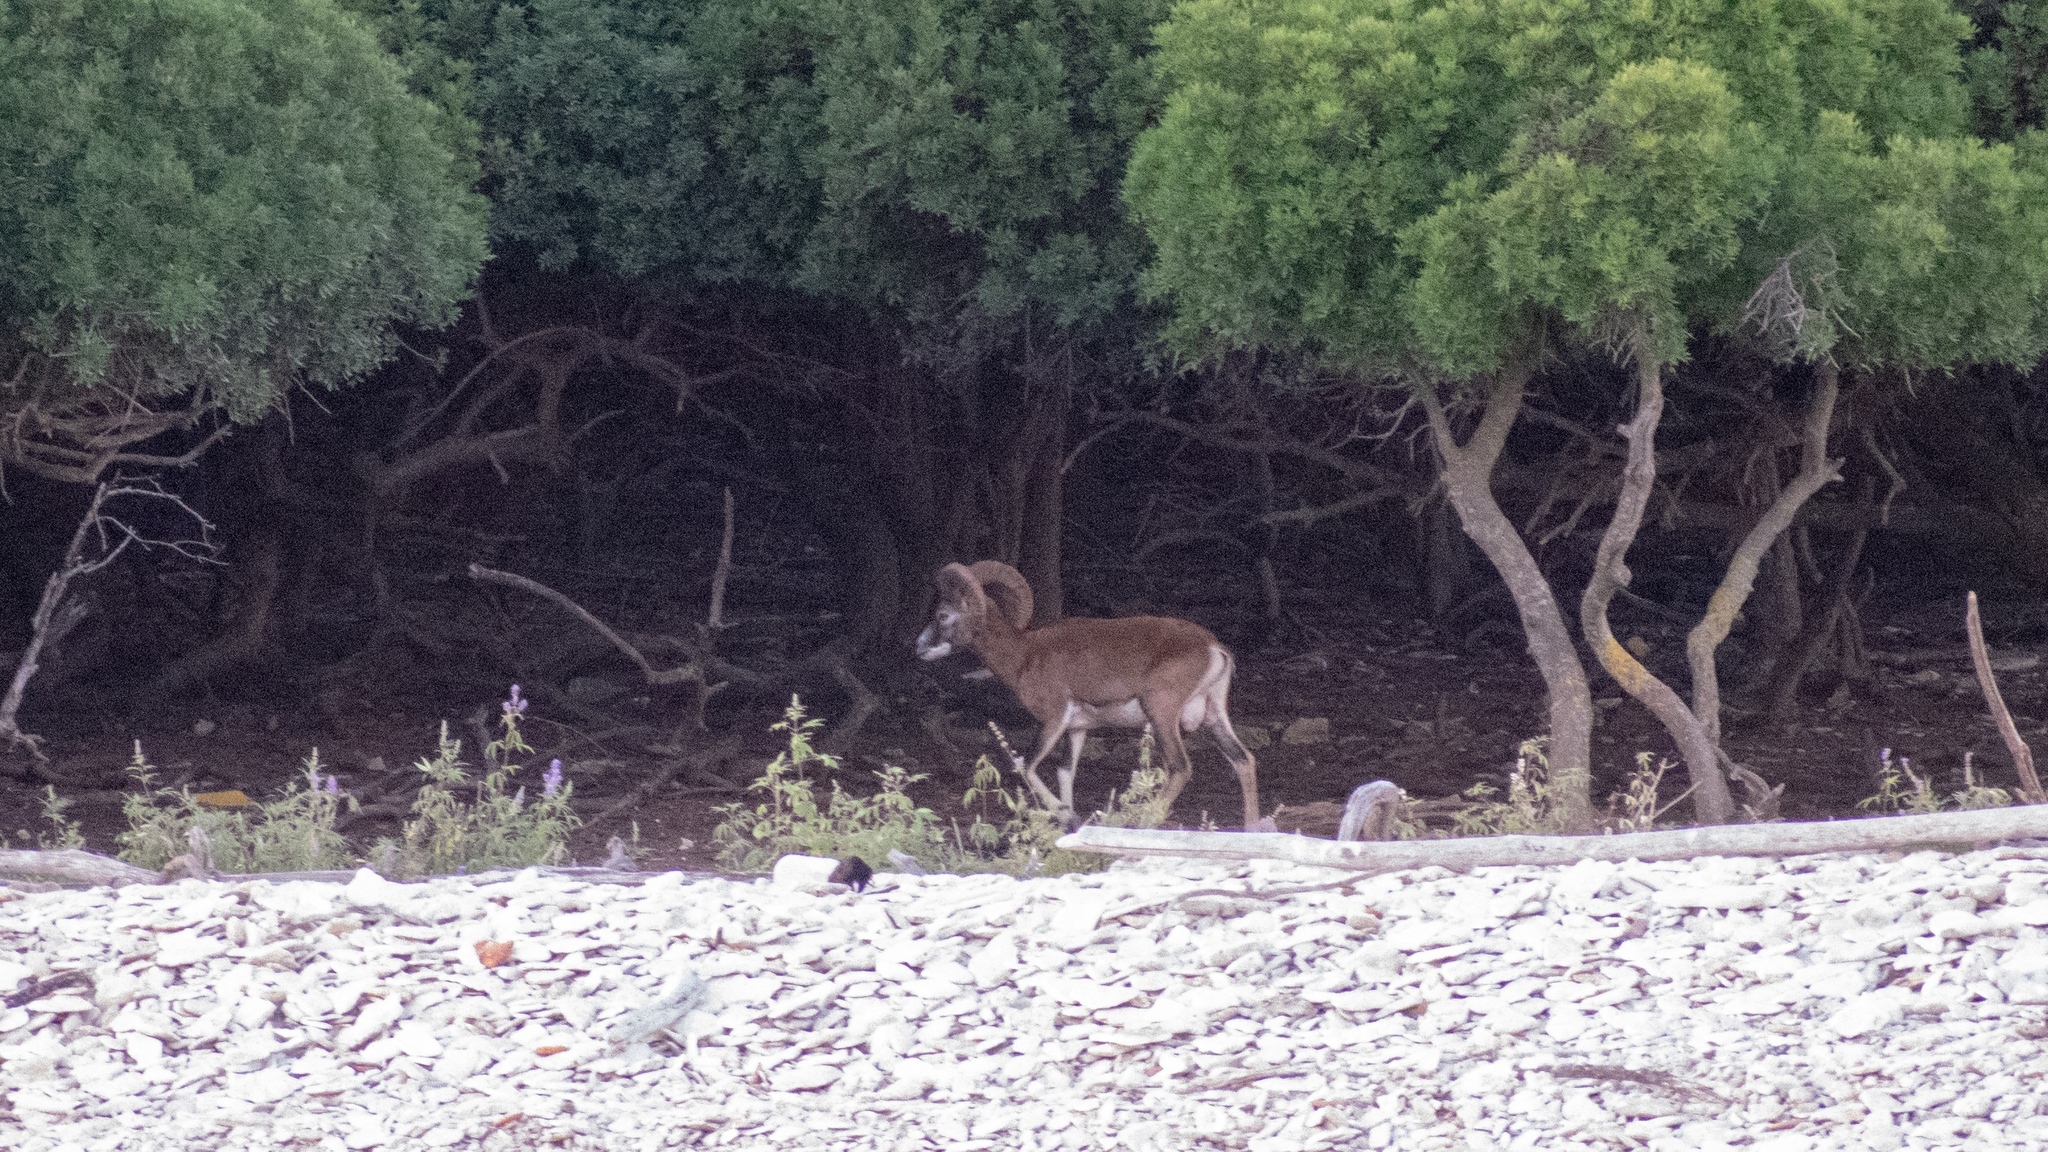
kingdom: Animalia
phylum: Chordata
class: Mammalia
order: Artiodactyla
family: Bovidae
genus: Ovis
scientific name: Ovis aries
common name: Domestic sheep
